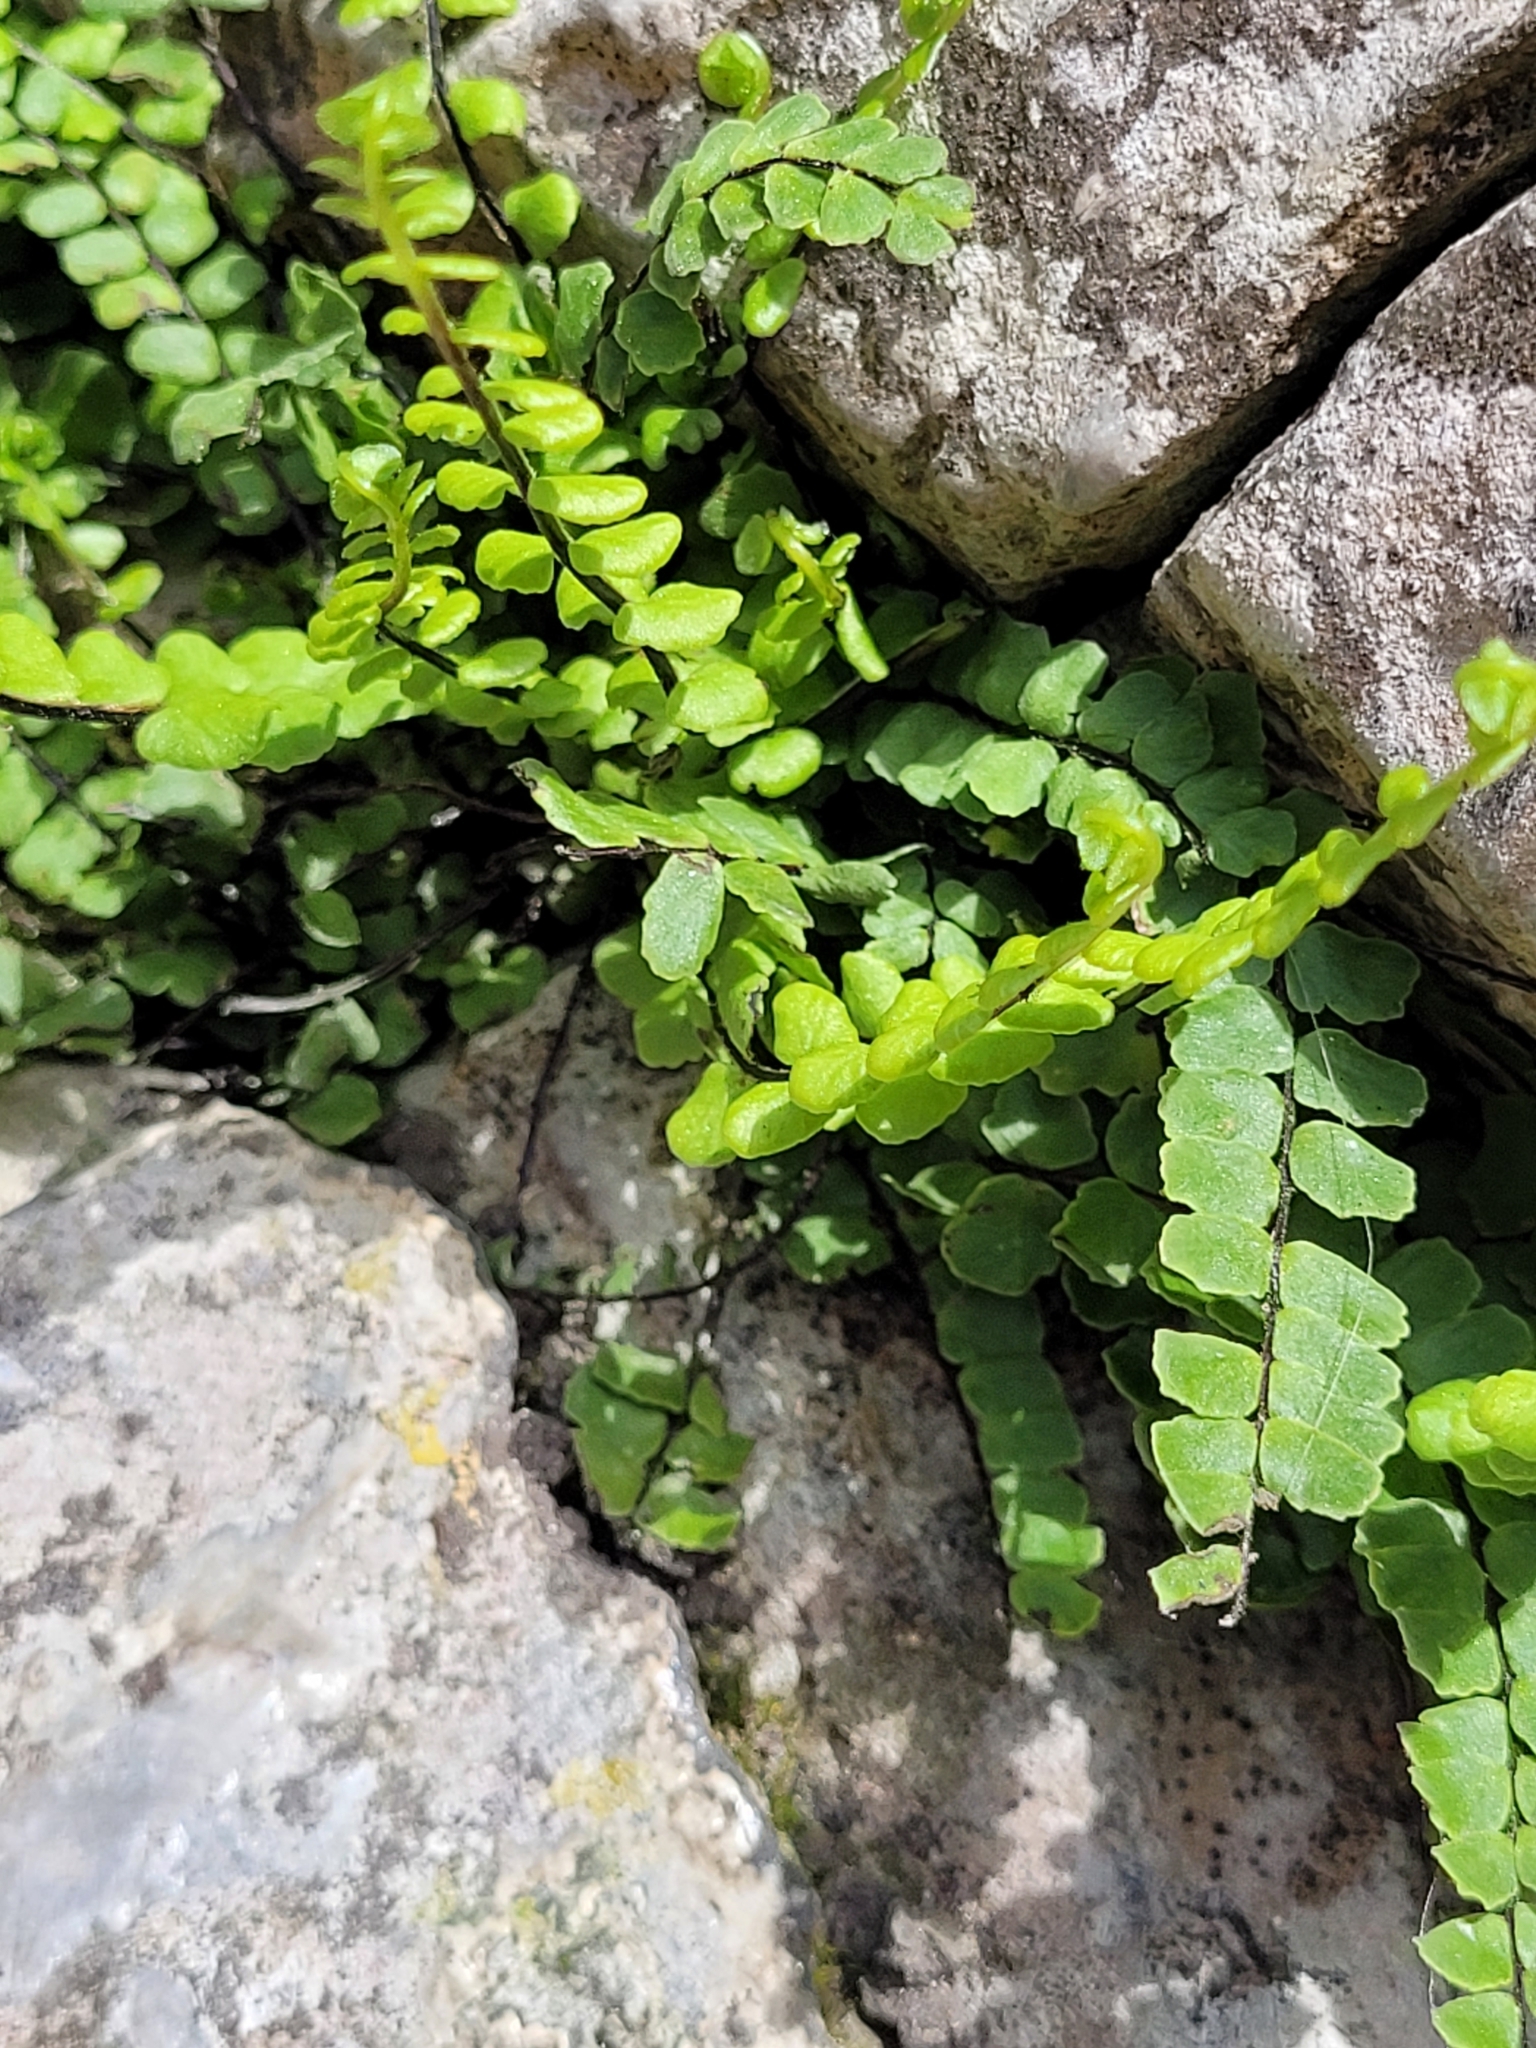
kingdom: Plantae
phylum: Tracheophyta
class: Polypodiopsida
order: Polypodiales
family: Aspleniaceae
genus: Asplenium
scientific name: Asplenium trichomanes
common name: Maidenhair spleenwort
